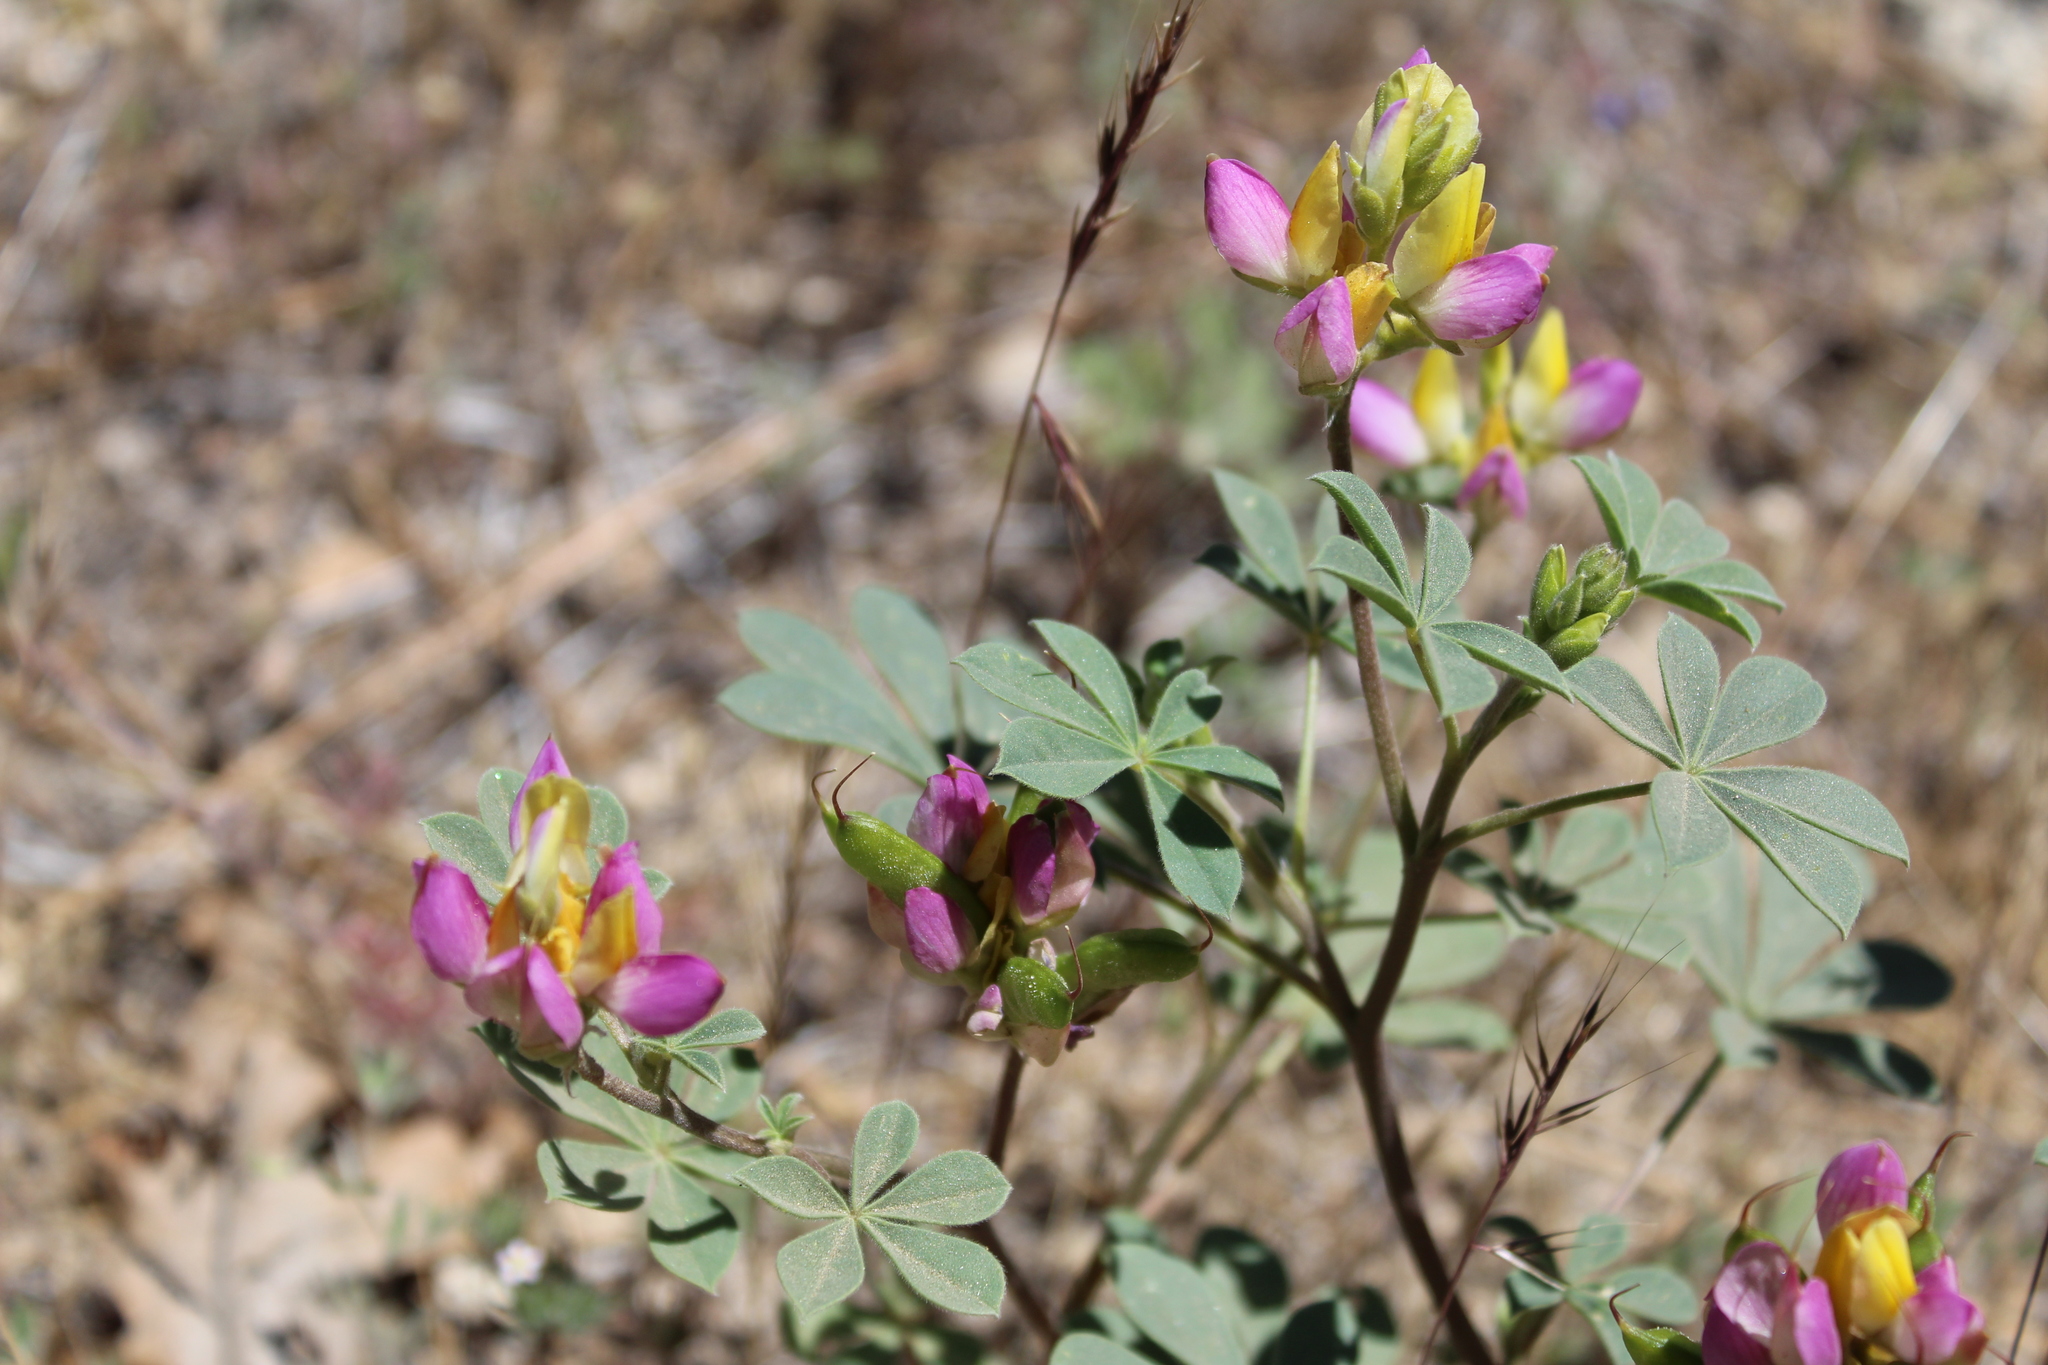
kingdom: Plantae
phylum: Tracheophyta
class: Magnoliopsida
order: Fabales
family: Fabaceae
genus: Lupinus
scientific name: Lupinus stiversii
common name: Harlequin lupine
